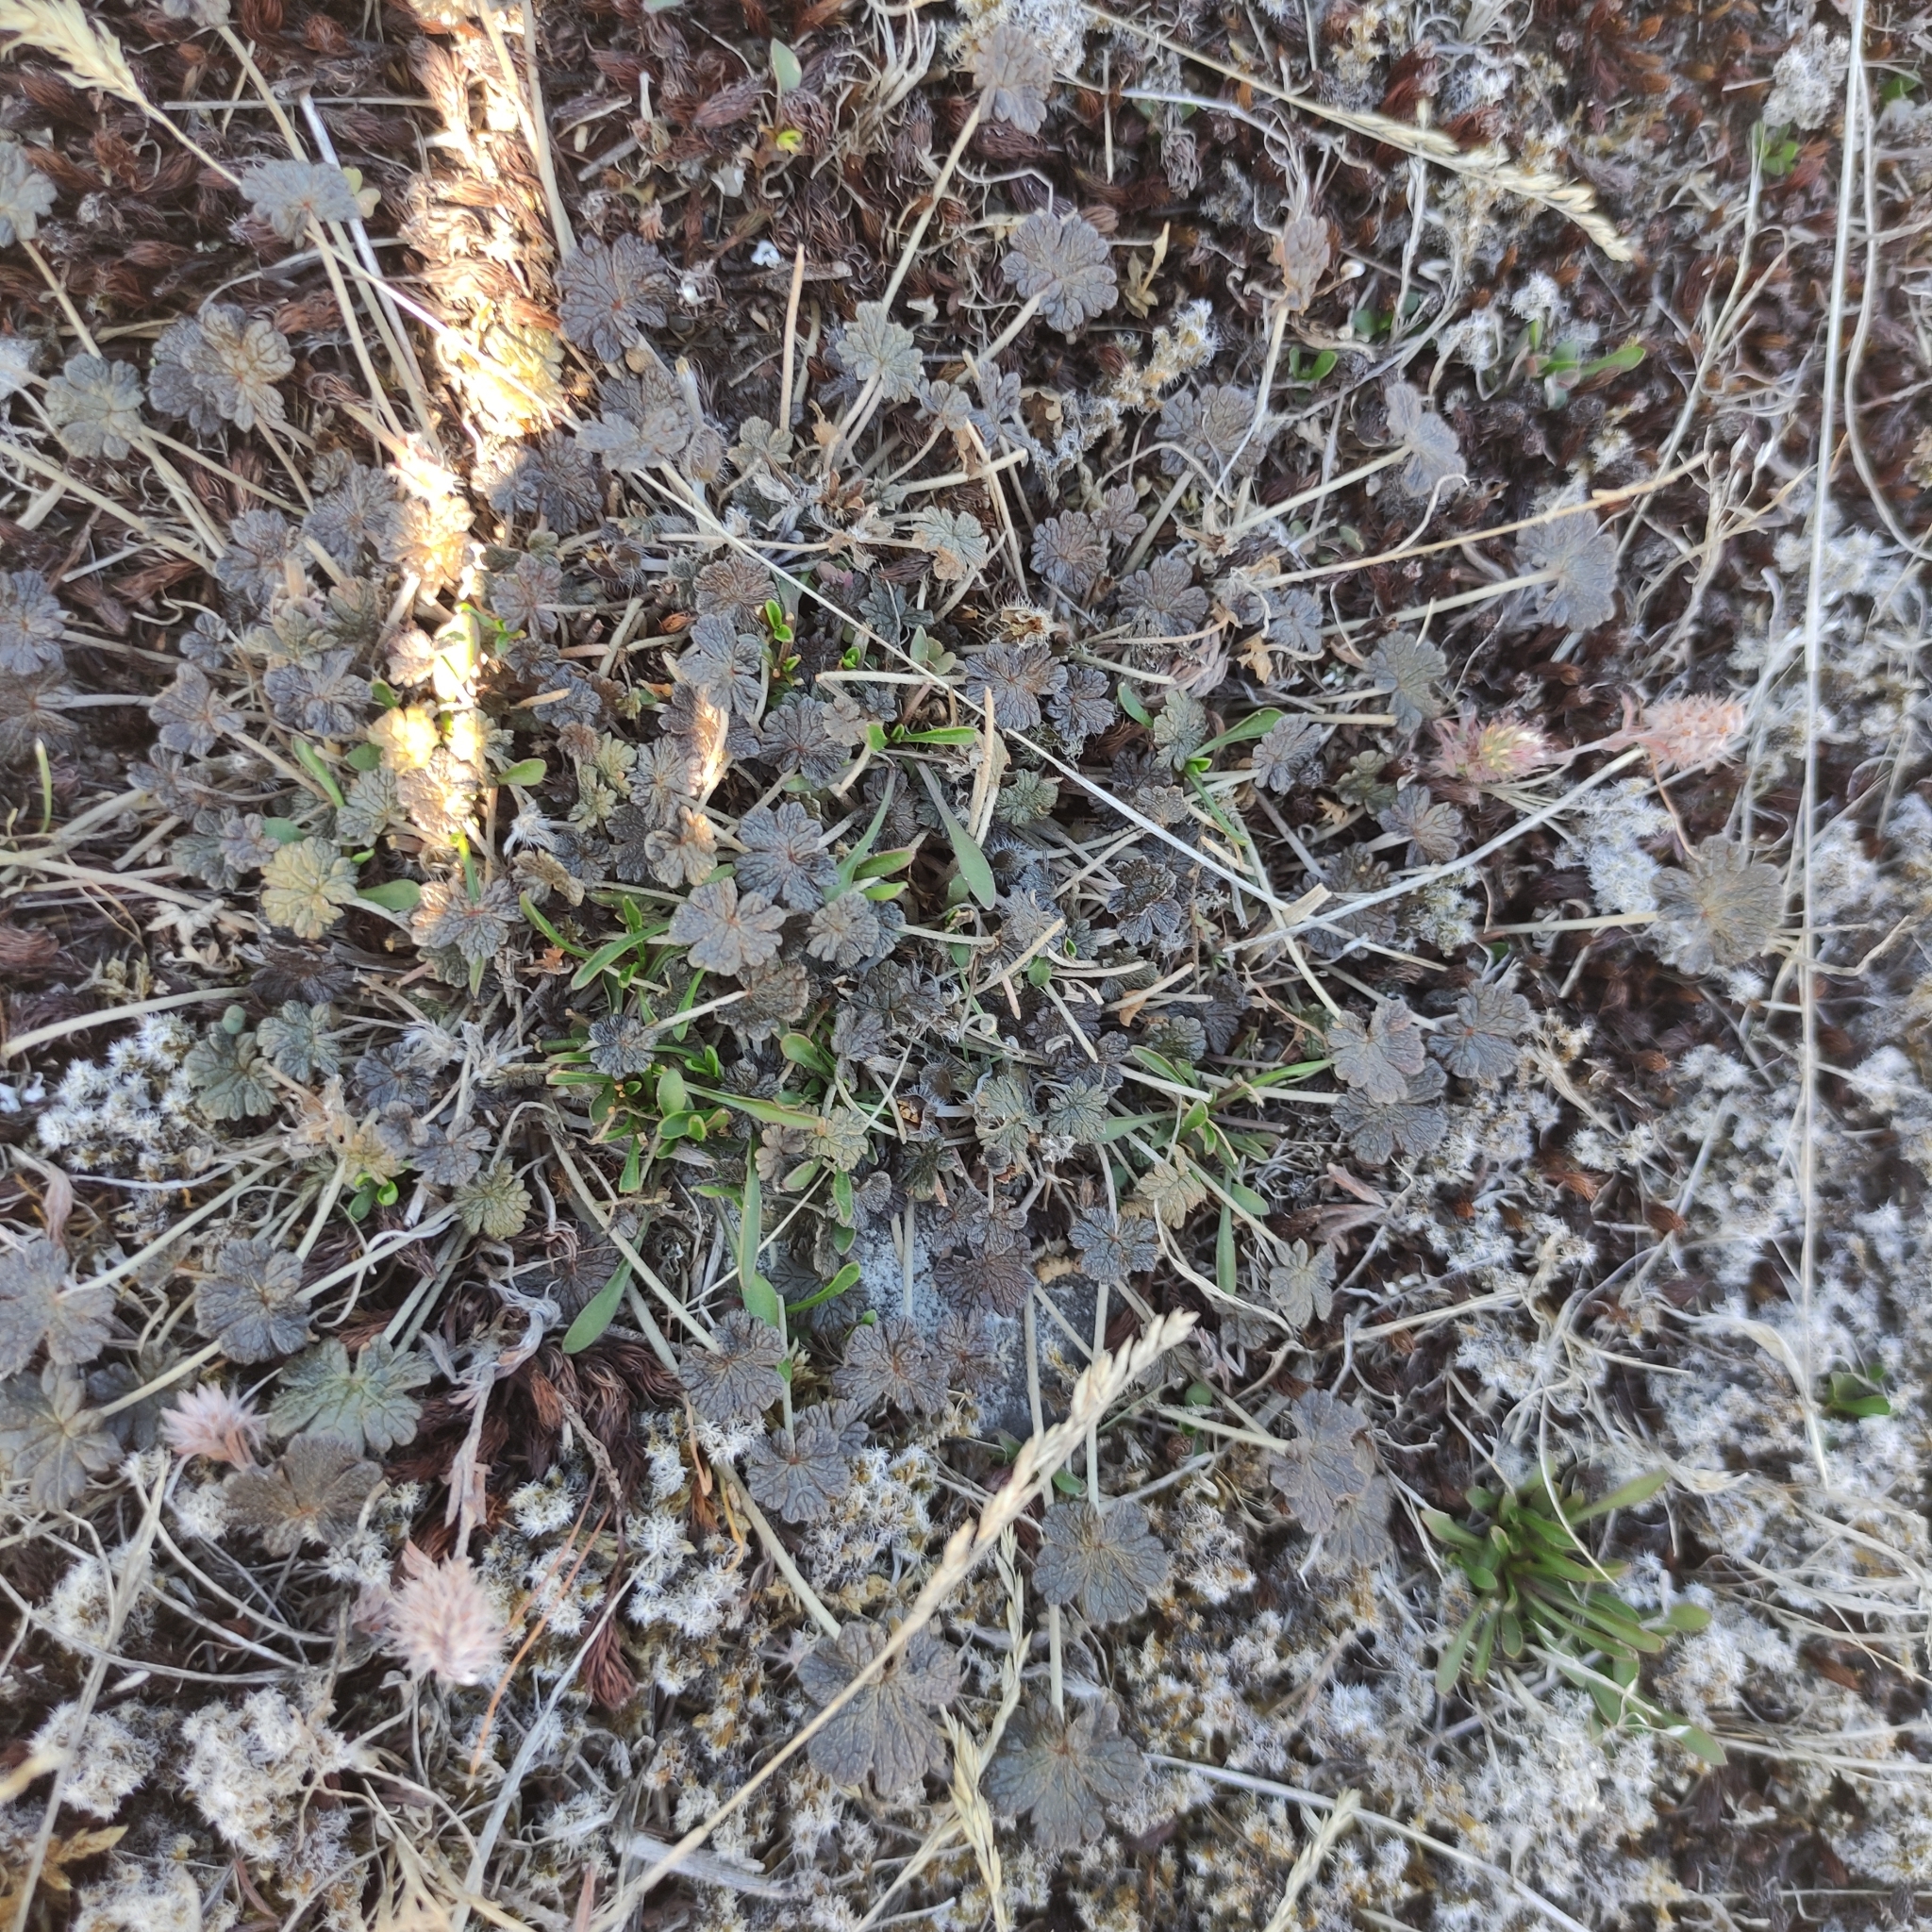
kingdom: Plantae
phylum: Tracheophyta
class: Magnoliopsida
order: Geraniales
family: Geraniaceae
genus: Geranium
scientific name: Geranium brevicaule
